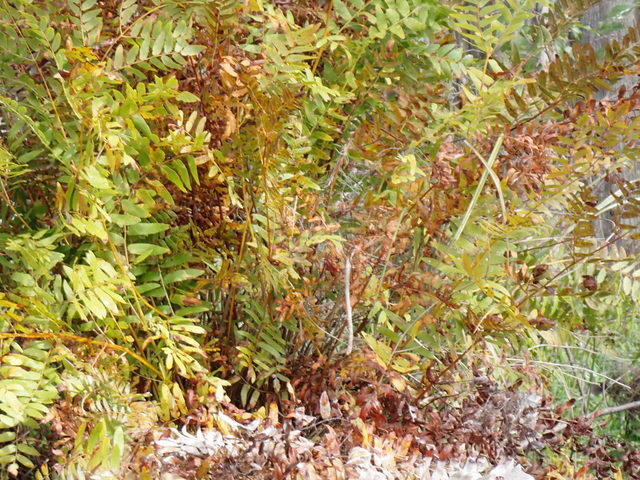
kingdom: Plantae
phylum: Tracheophyta
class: Polypodiopsida
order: Osmundales
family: Osmundaceae
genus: Osmunda
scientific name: Osmunda spectabilis
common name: American royal fern
